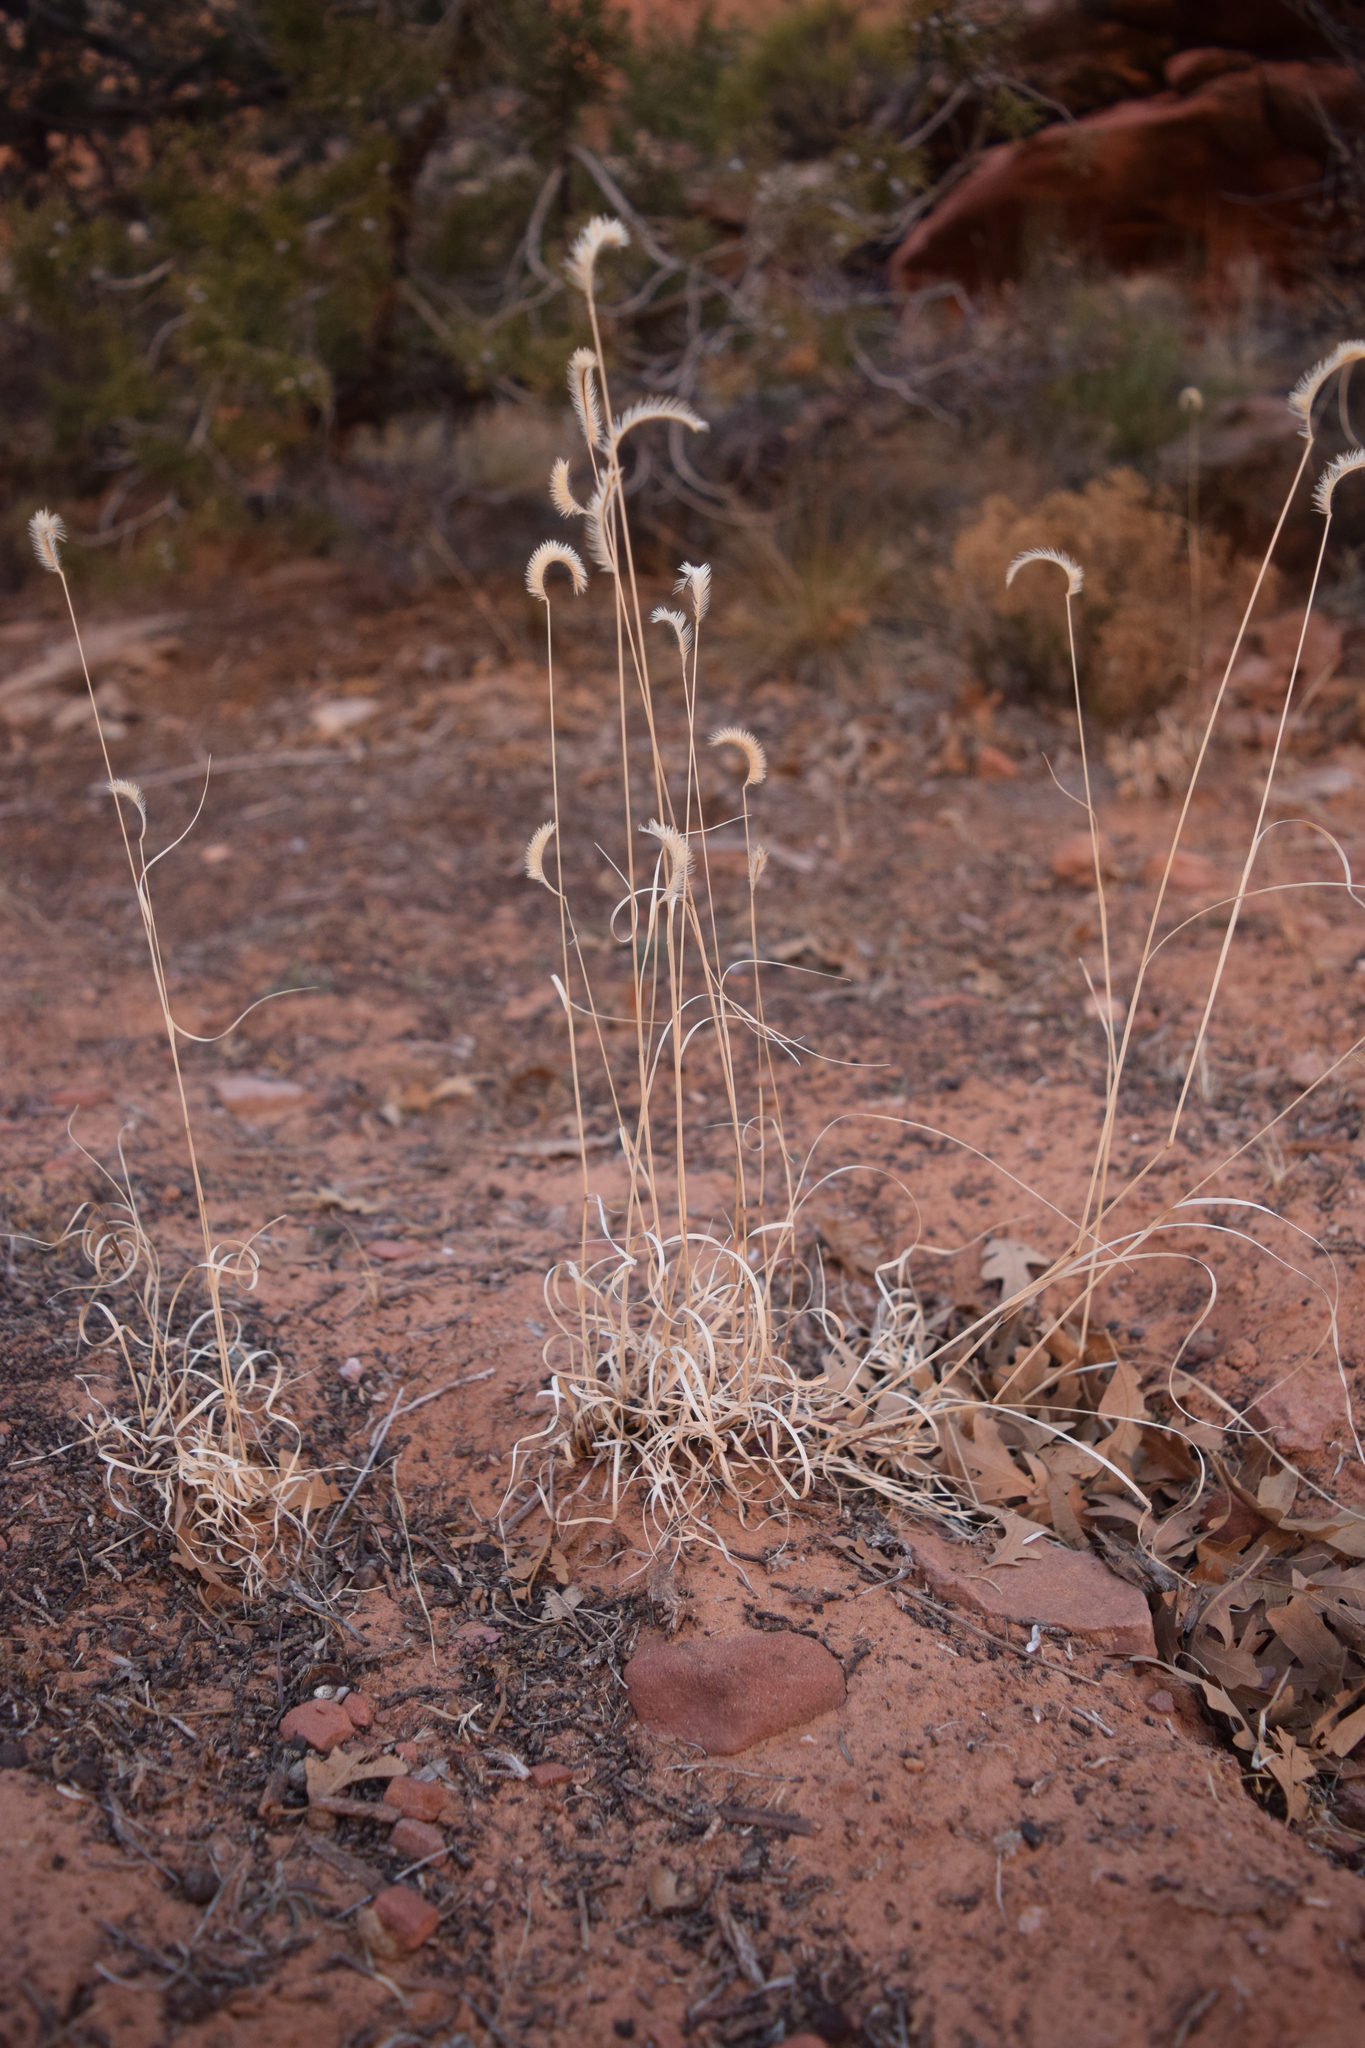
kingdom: Plantae
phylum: Tracheophyta
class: Liliopsida
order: Poales
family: Poaceae
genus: Bouteloua
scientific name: Bouteloua gracilis
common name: Blue grama
